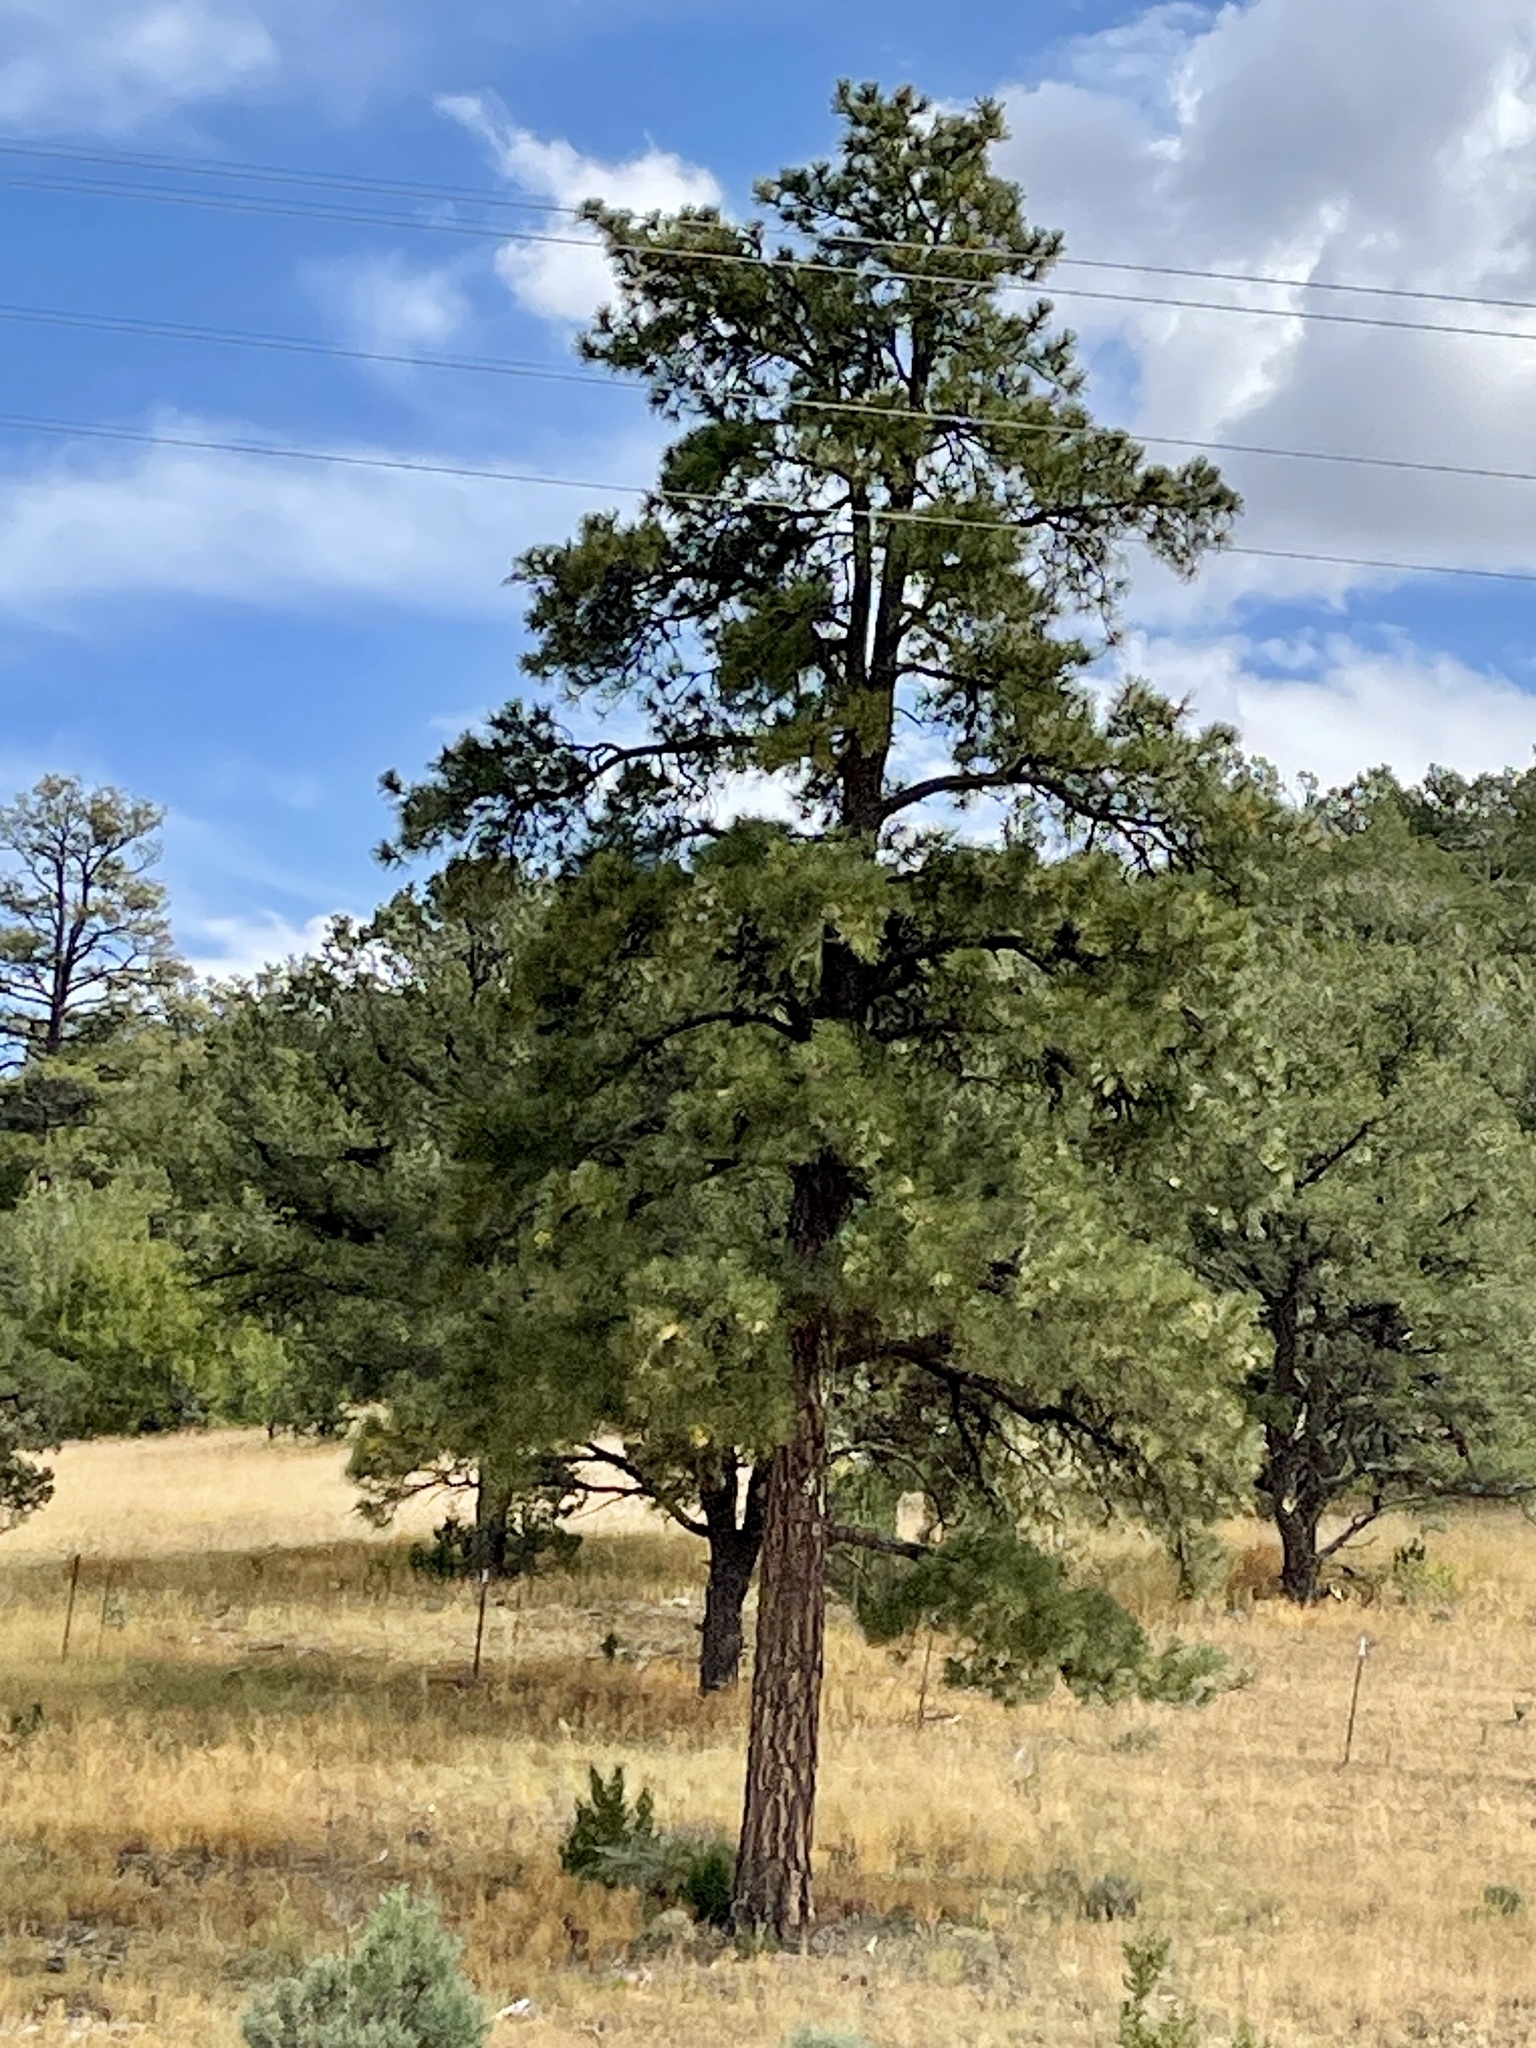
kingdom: Plantae
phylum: Tracheophyta
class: Pinopsida
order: Pinales
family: Pinaceae
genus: Pinus
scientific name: Pinus ponderosa
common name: Western yellow-pine
